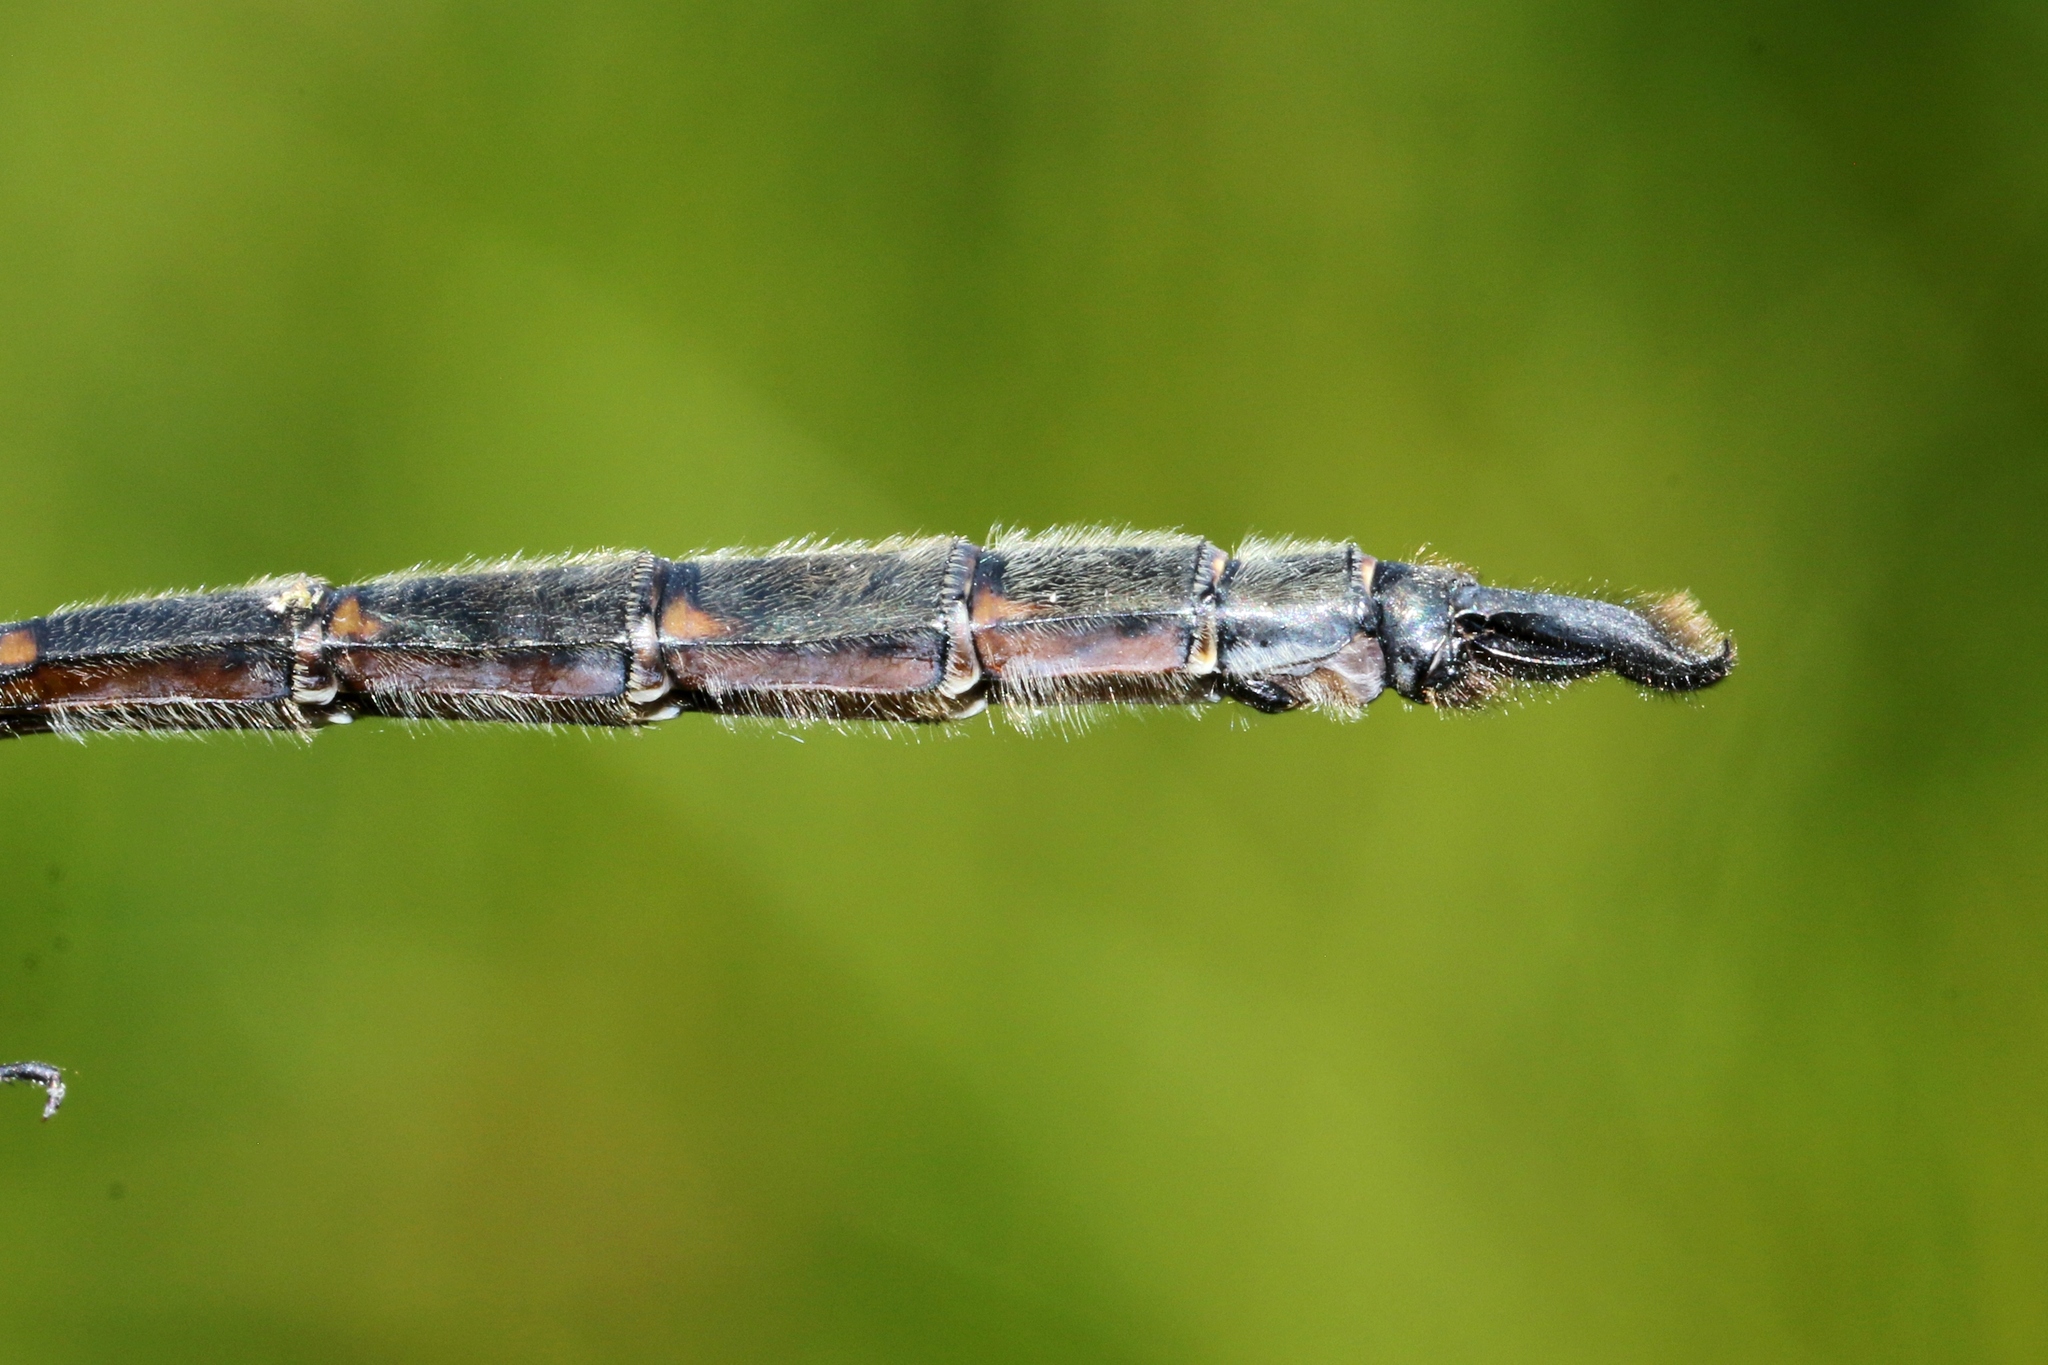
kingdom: Animalia
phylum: Arthropoda
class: Insecta
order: Odonata
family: Corduliidae
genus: Somatochlora
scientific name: Somatochlora williamsoni
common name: Williamson's emerald
